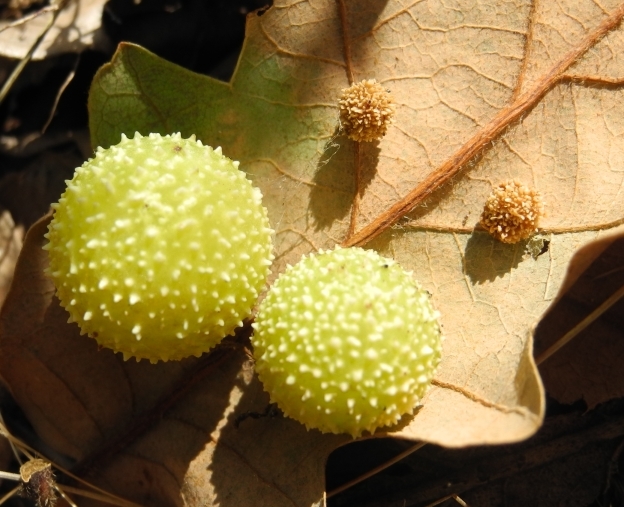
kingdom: Animalia
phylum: Arthropoda
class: Insecta
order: Hymenoptera
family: Cynipidae
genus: Cynips
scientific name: Cynips quercusfolii
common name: Cherry gall
